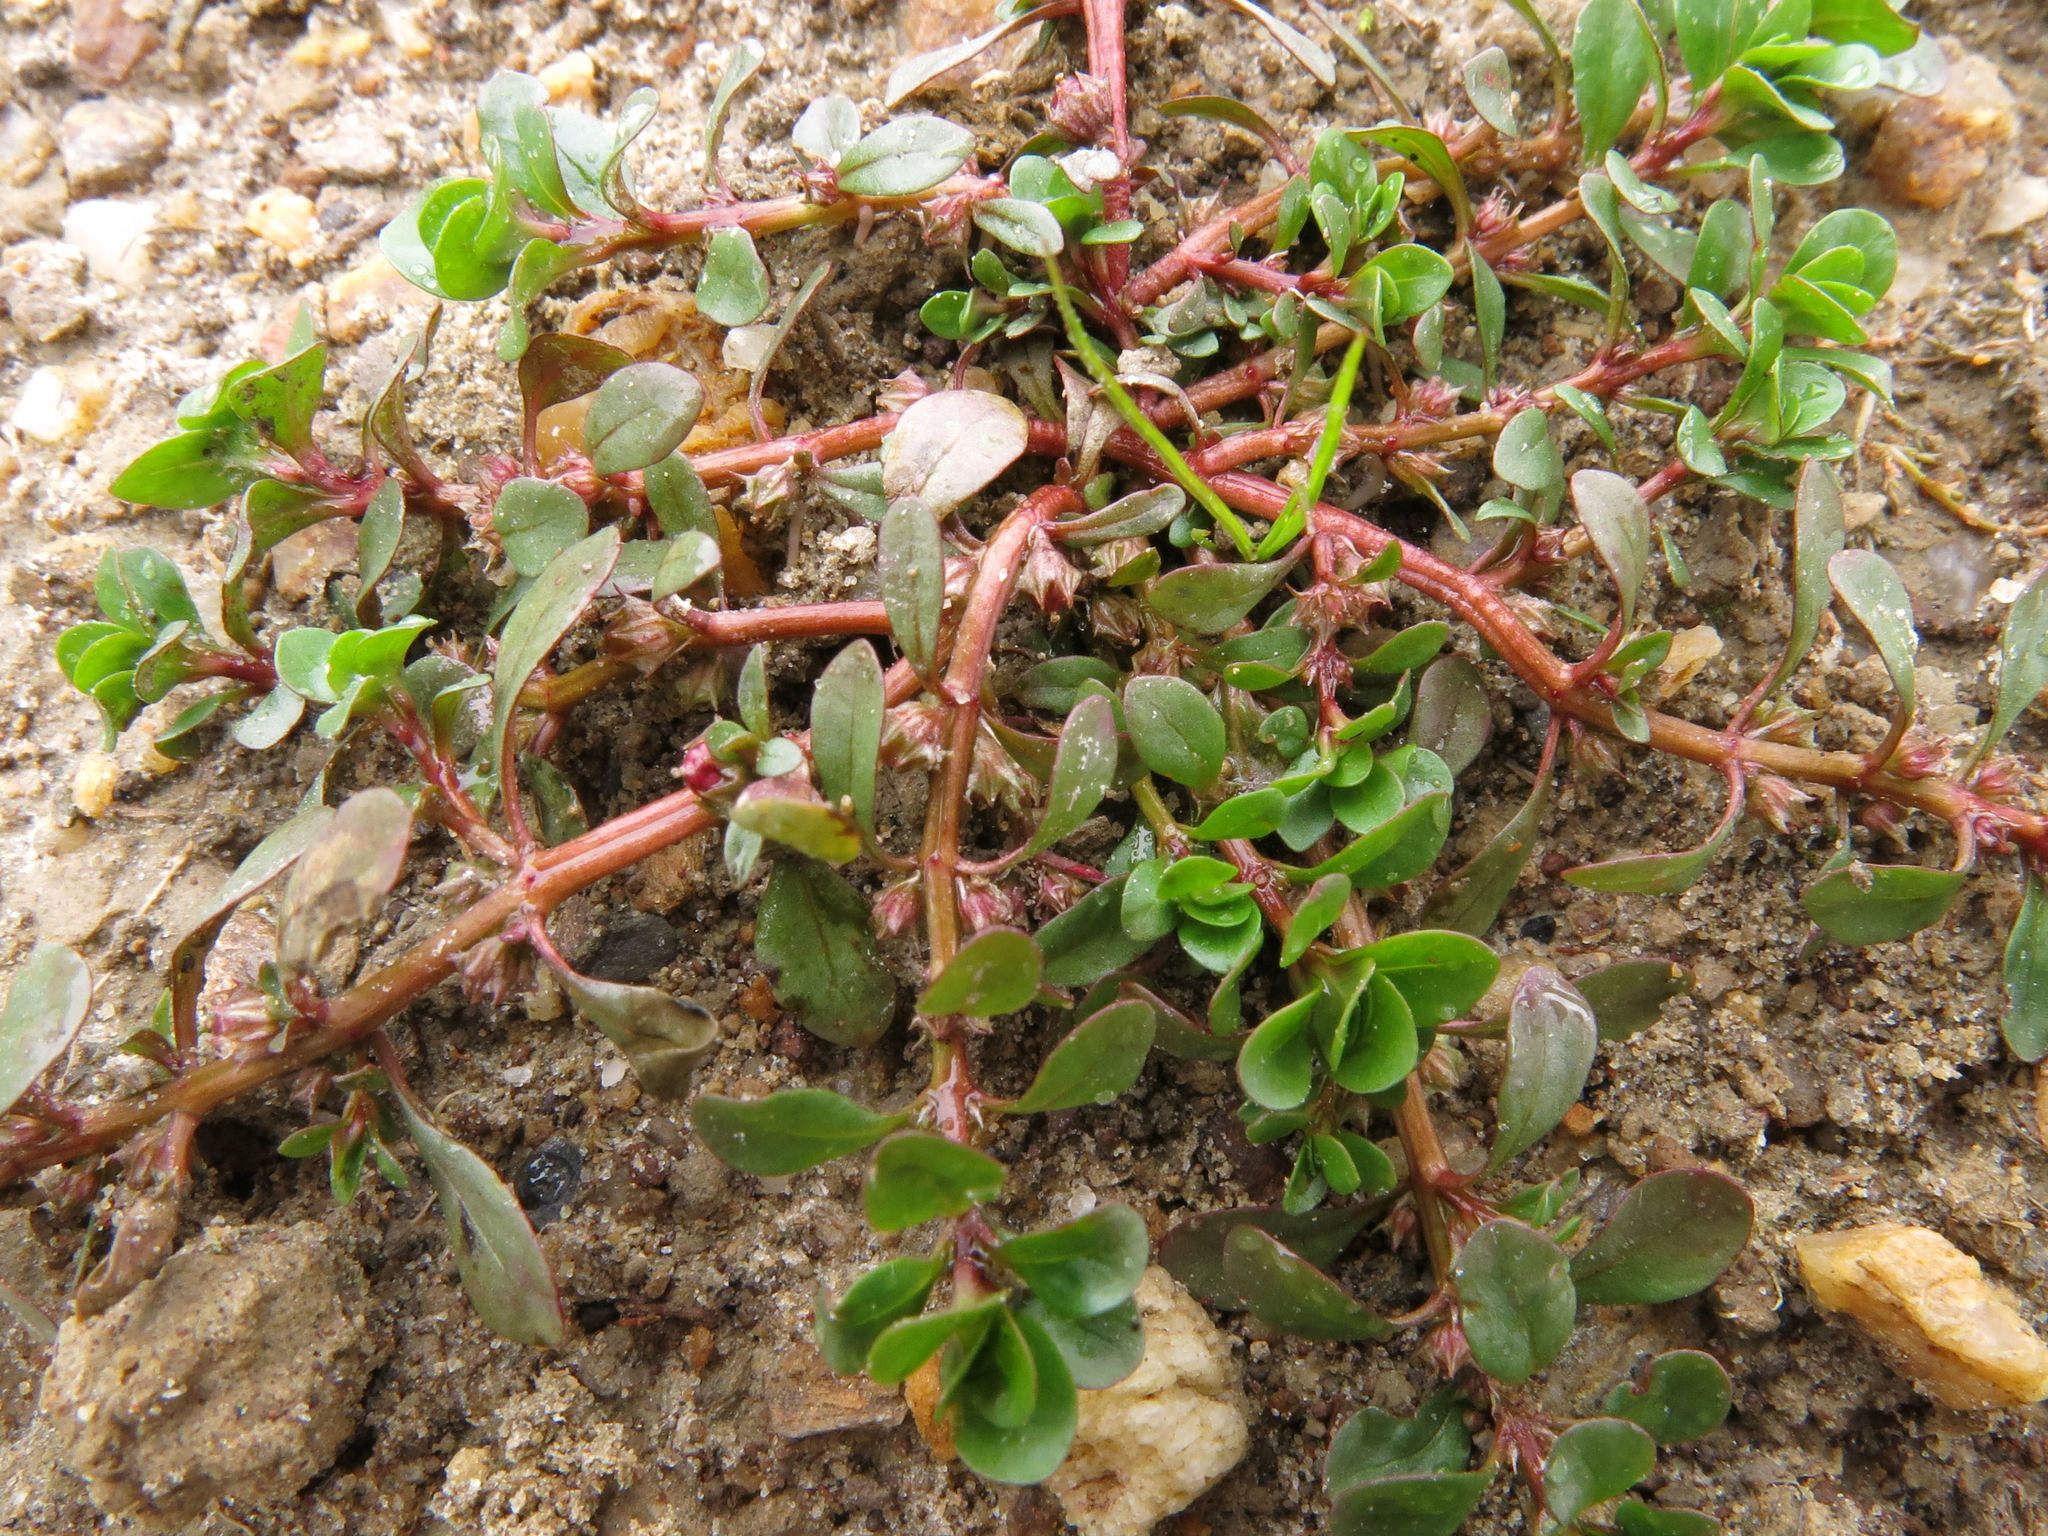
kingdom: Plantae
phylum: Tracheophyta
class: Magnoliopsida
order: Caryophyllales
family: Portulacaceae
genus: Portulaca
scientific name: Portulaca oleracea
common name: Common purslane
